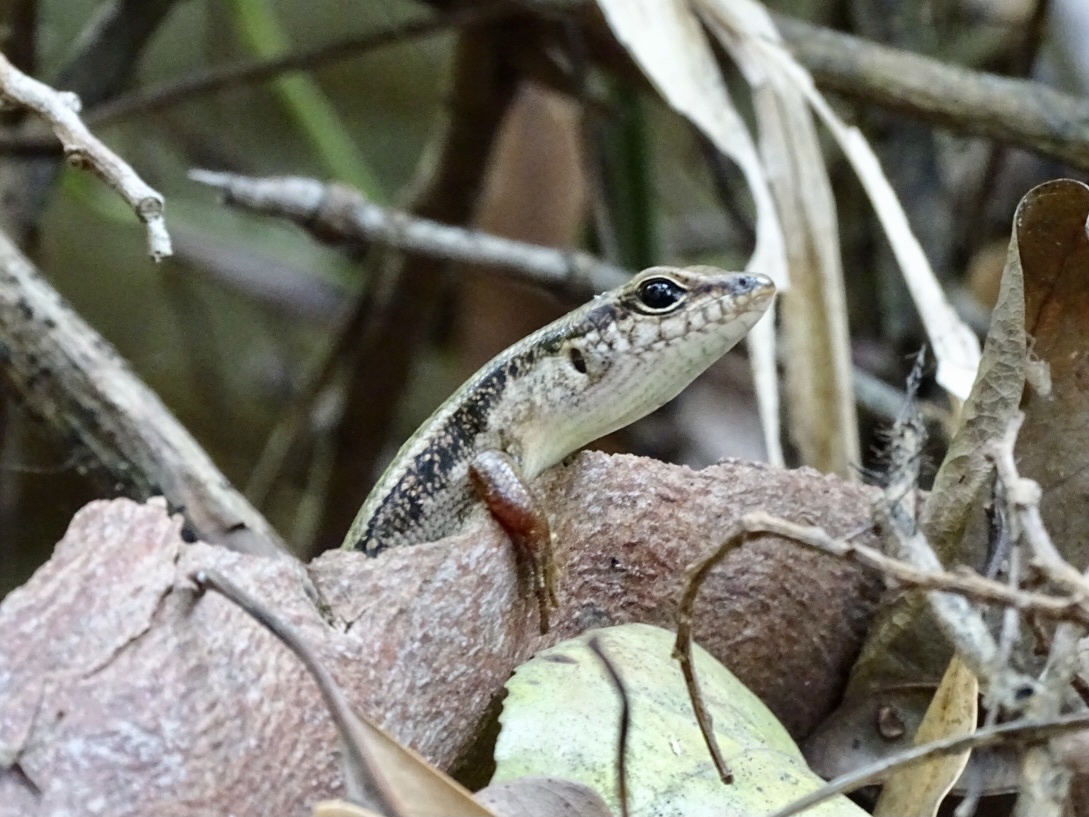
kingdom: Animalia
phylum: Chordata
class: Squamata
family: Scincidae
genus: Sphenomorphus
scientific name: Sphenomorphus indicus
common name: Himalayan forest skink
